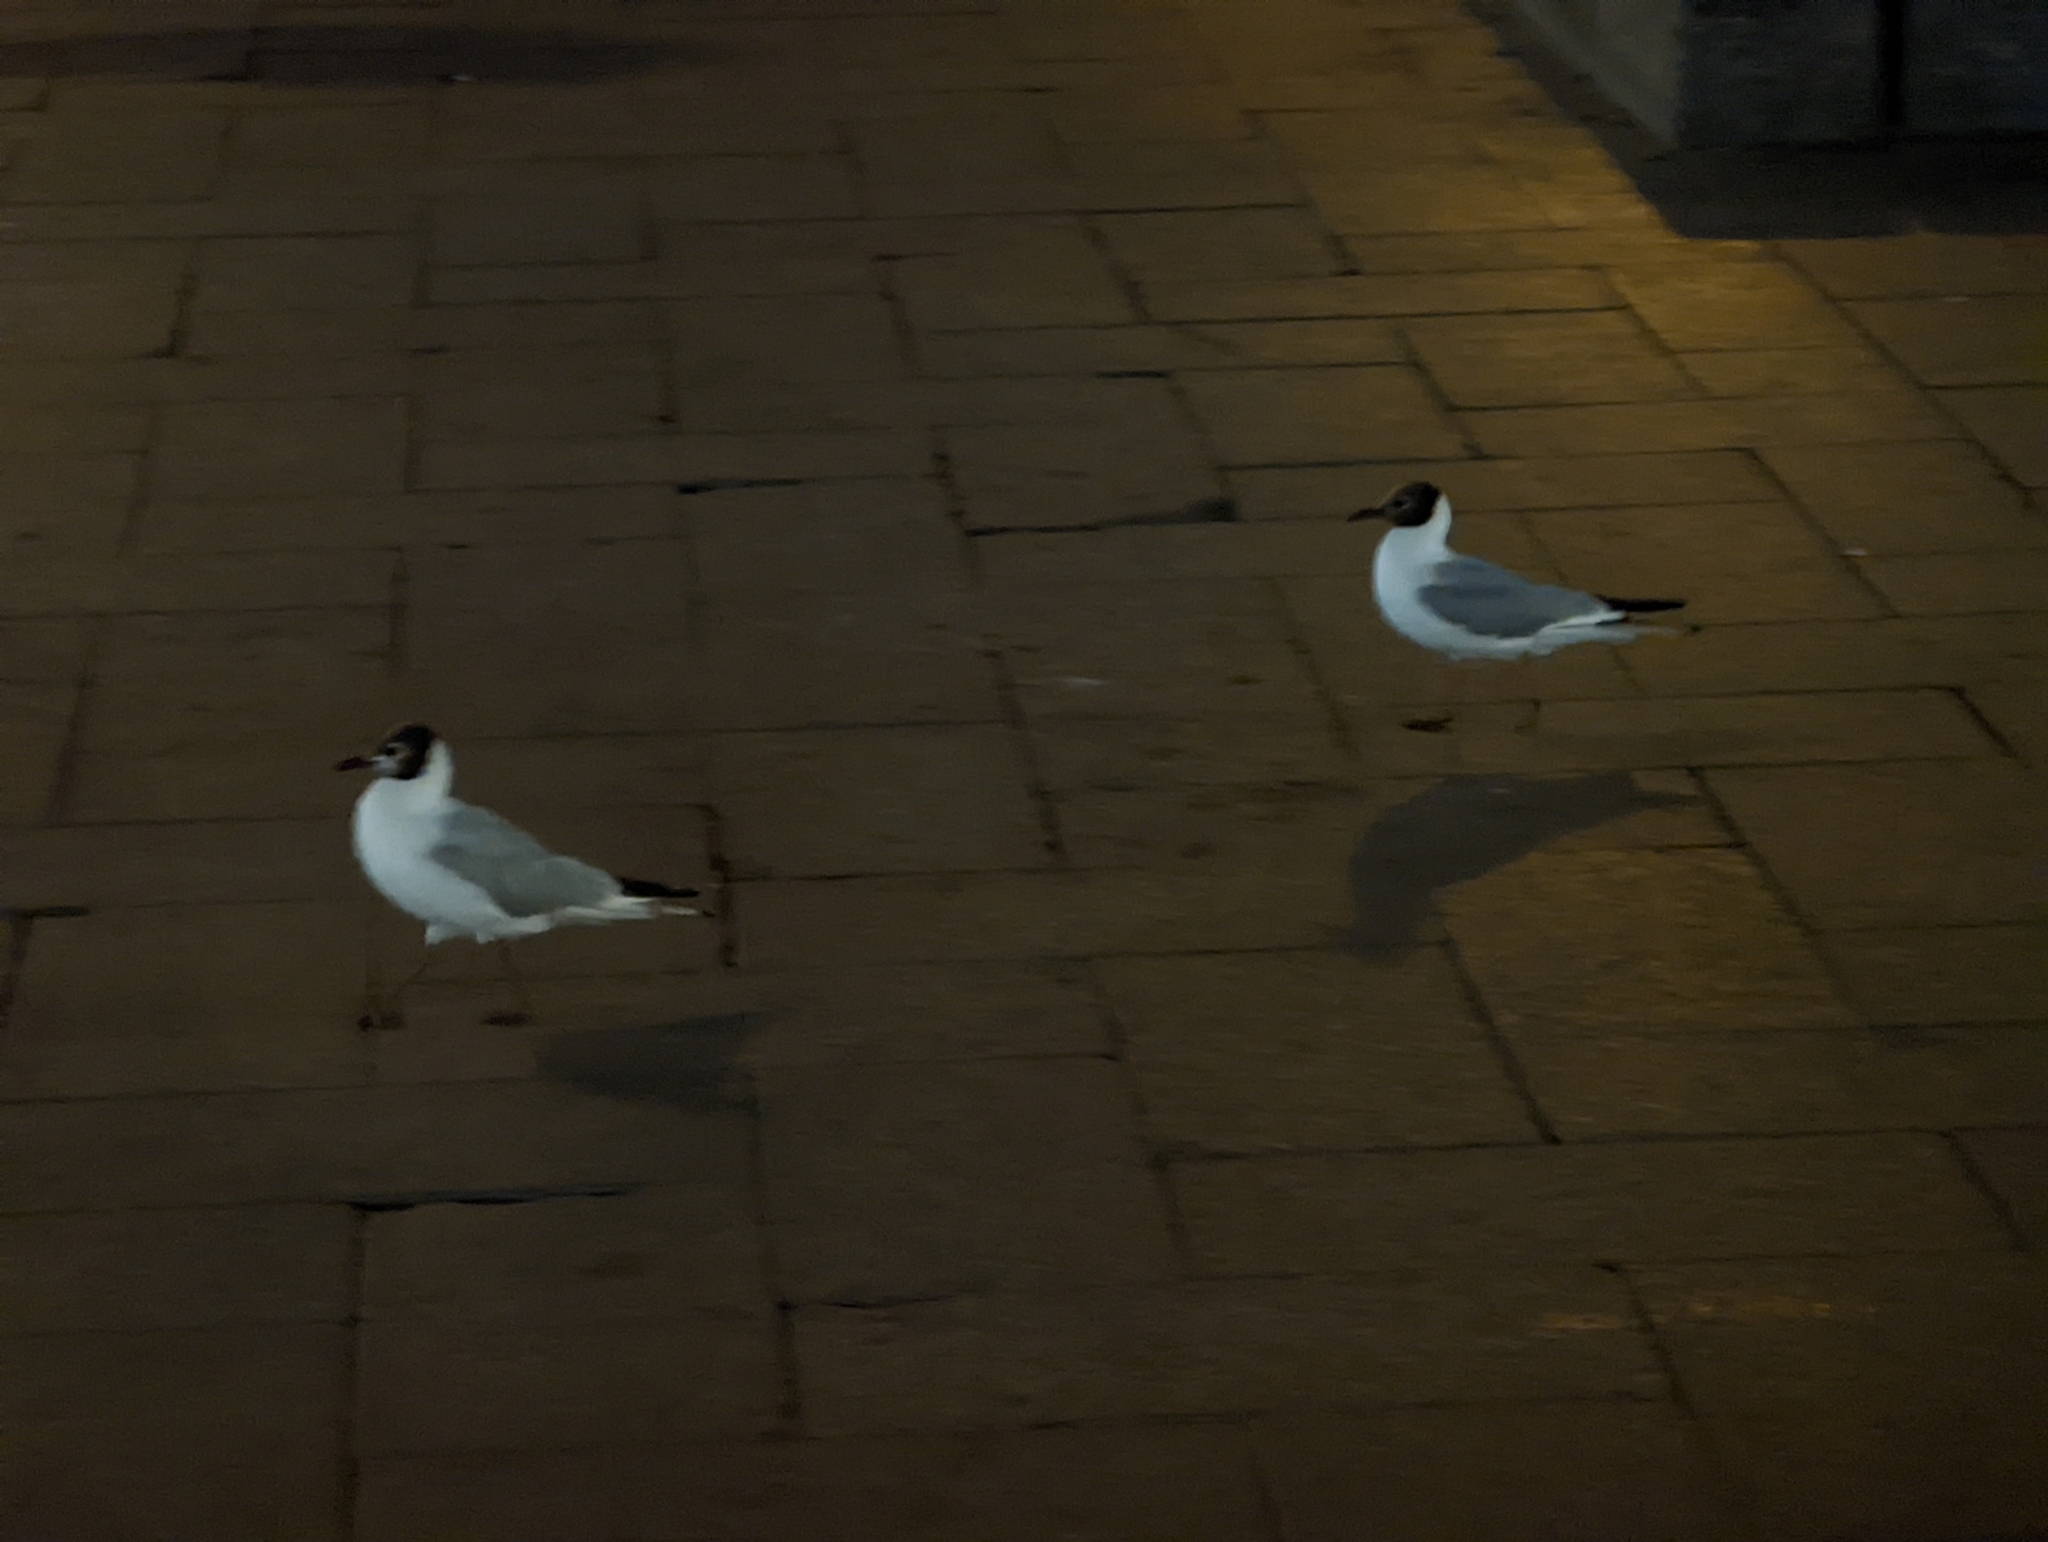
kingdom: Animalia
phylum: Chordata
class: Aves
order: Charadriiformes
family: Laridae
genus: Chroicocephalus
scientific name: Chroicocephalus ridibundus
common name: Black-headed gull
